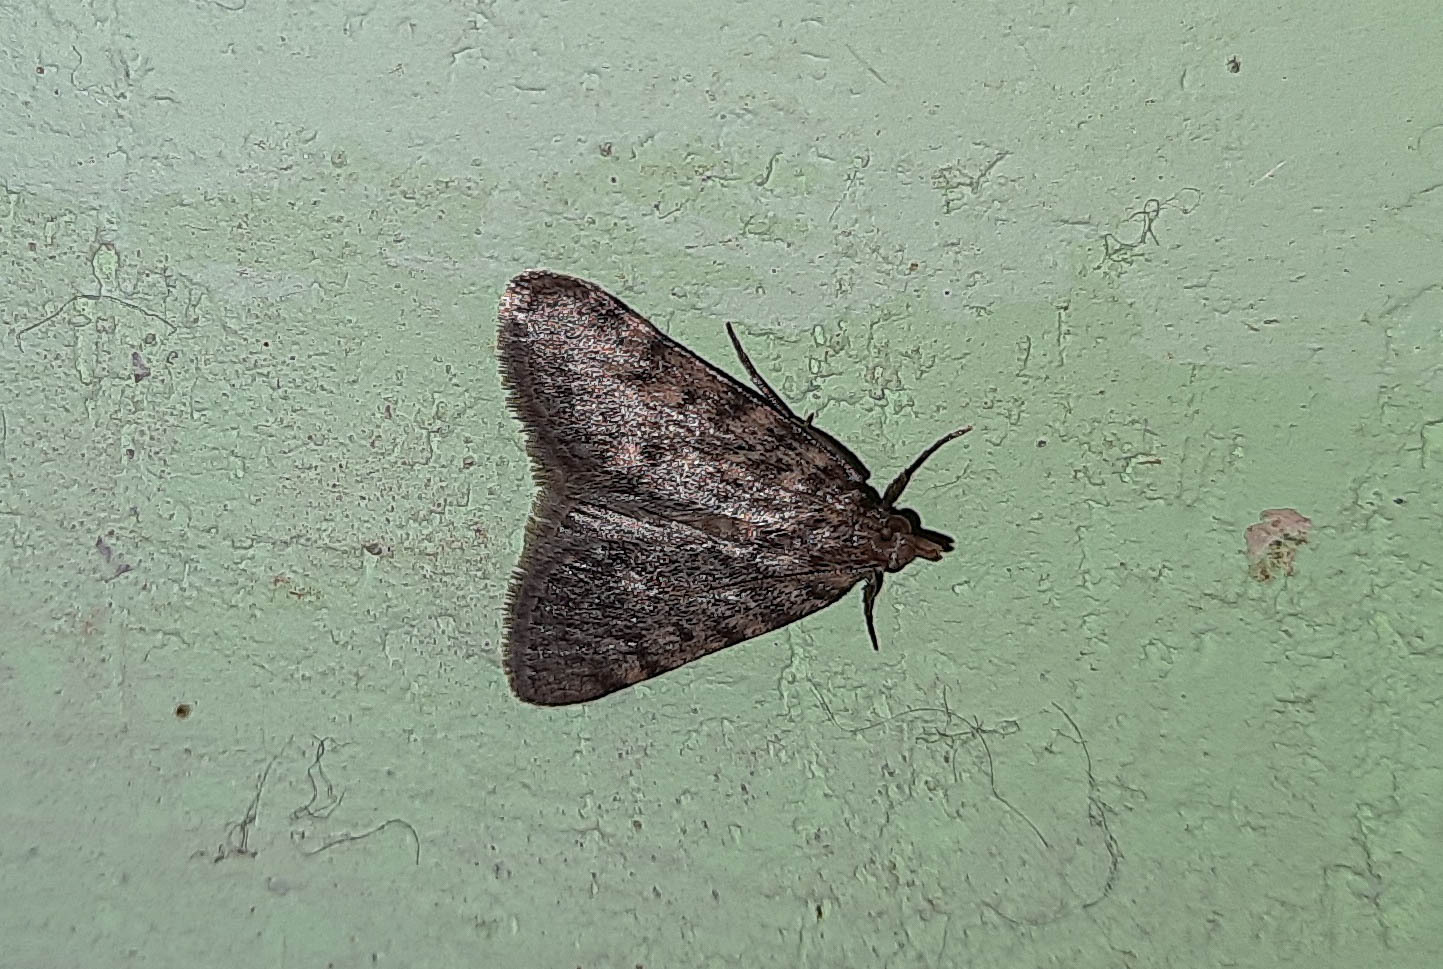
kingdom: Animalia
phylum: Arthropoda
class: Insecta
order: Lepidoptera
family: Pyralidae
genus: Aglossa
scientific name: Aglossa pinguinalis
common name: Large tabby
